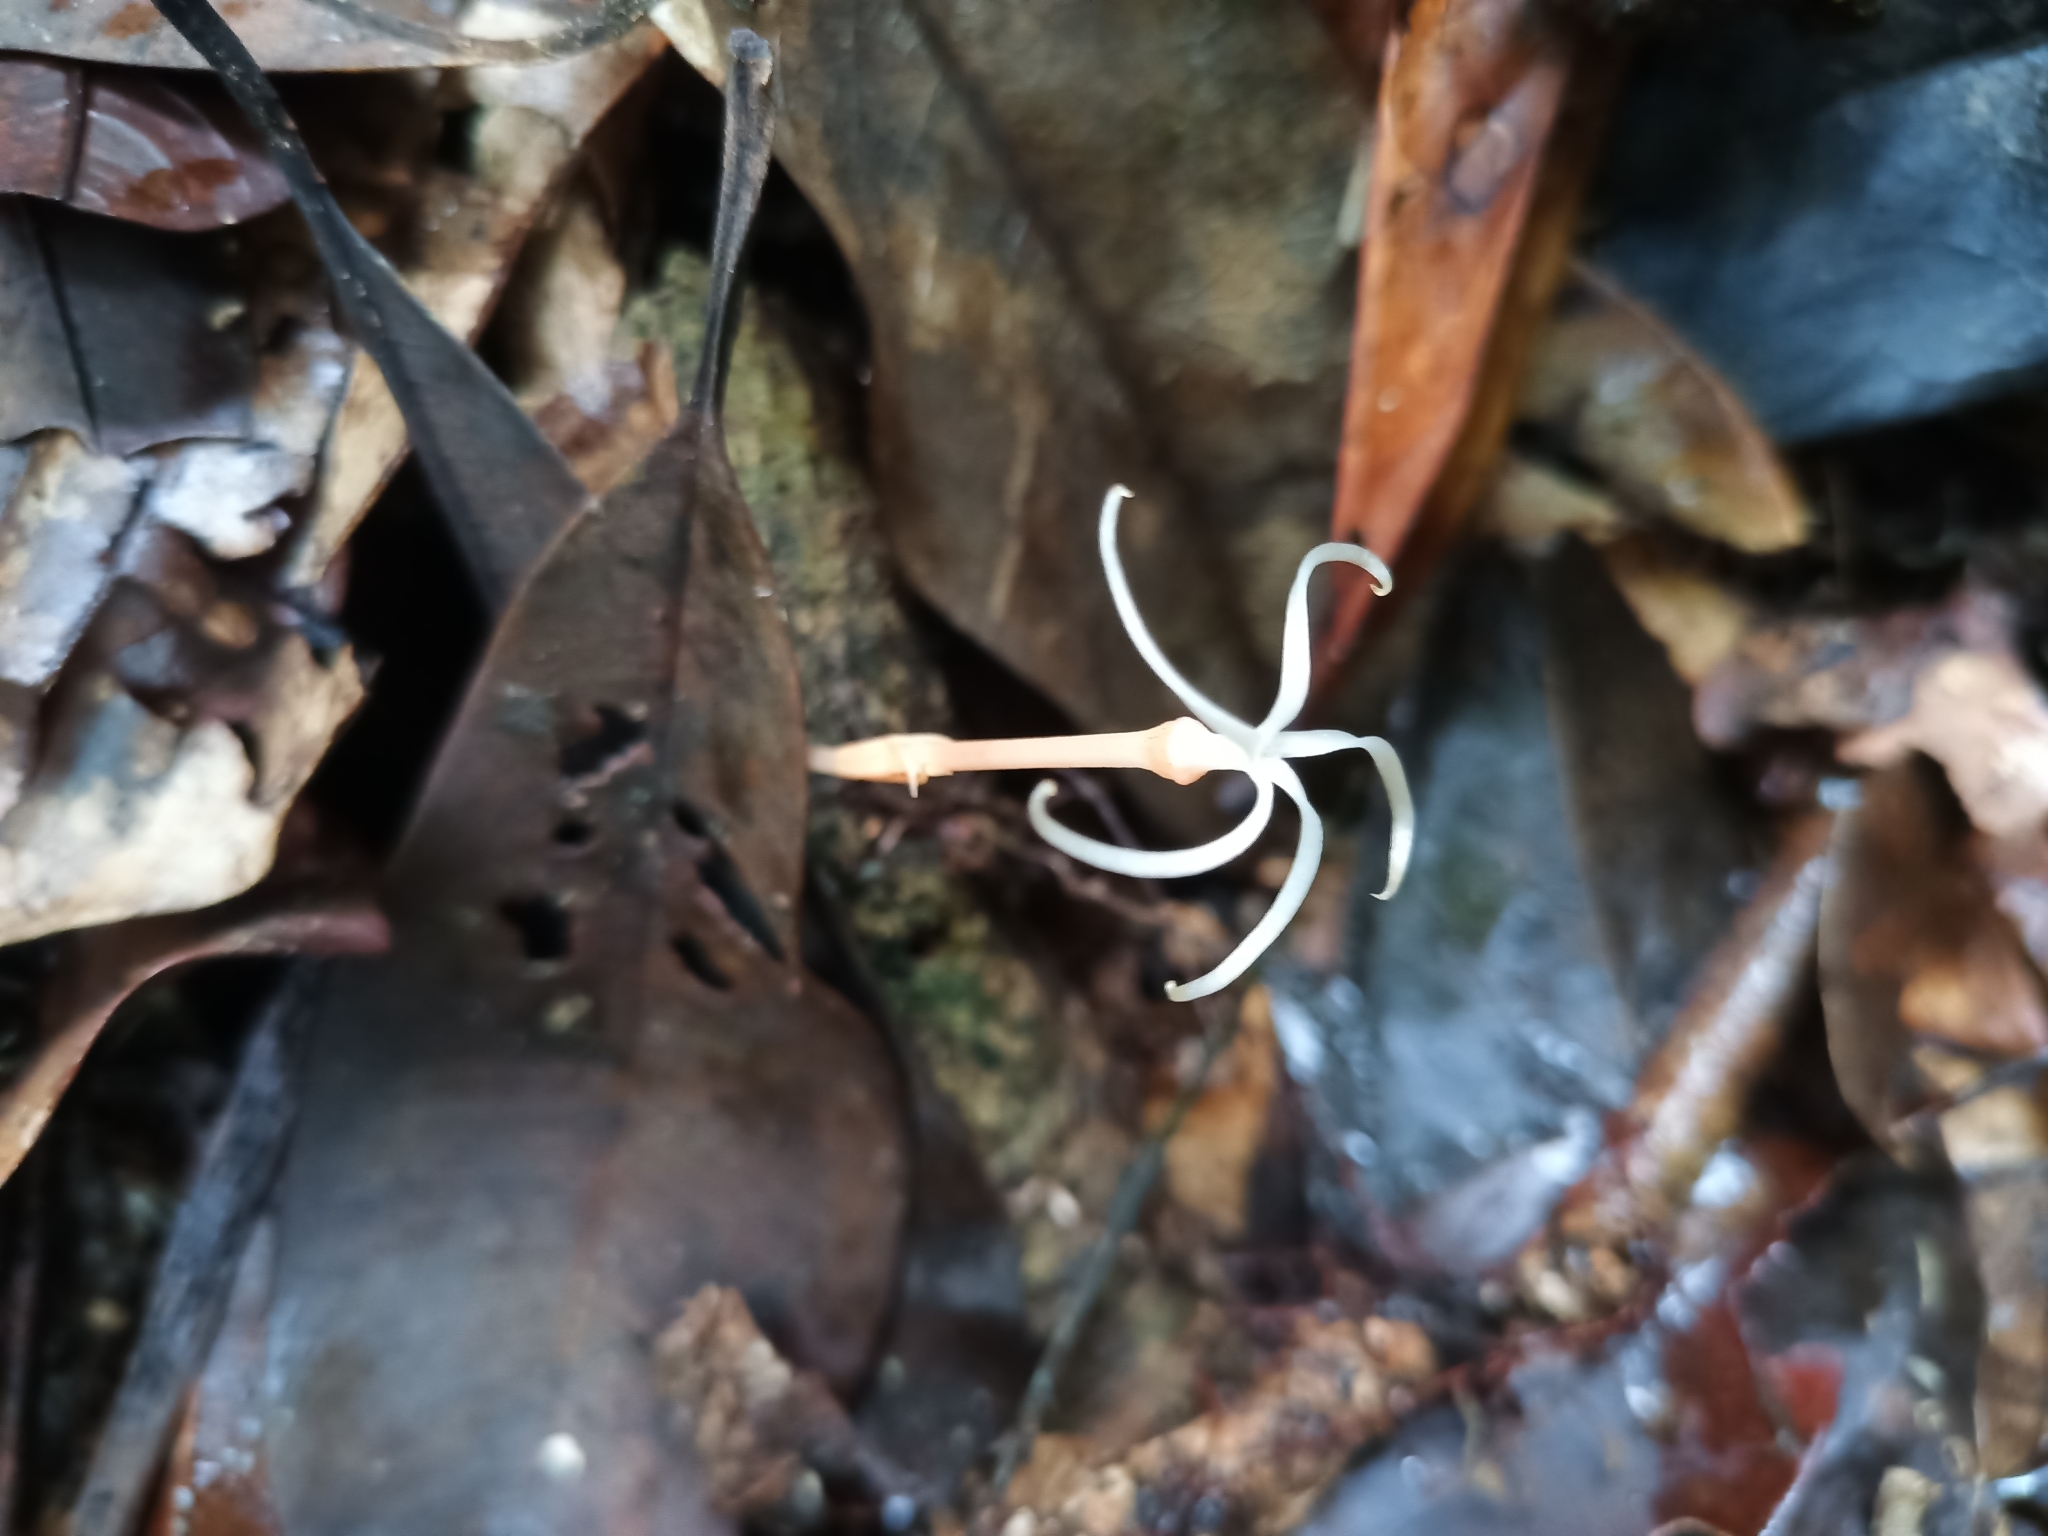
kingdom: Plantae
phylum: Tracheophyta
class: Magnoliopsida
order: Gentianales
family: Gentianaceae
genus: Voyria
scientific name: Voyria tenuiflora
